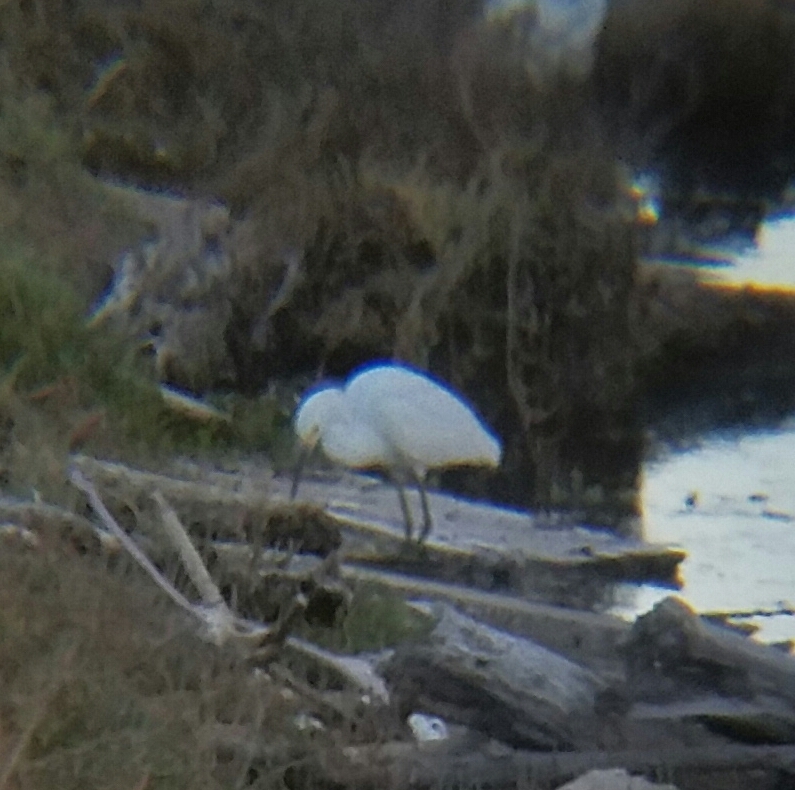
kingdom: Animalia
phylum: Chordata
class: Aves
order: Pelecaniformes
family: Ardeidae
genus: Egretta
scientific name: Egretta thula
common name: Snowy egret
